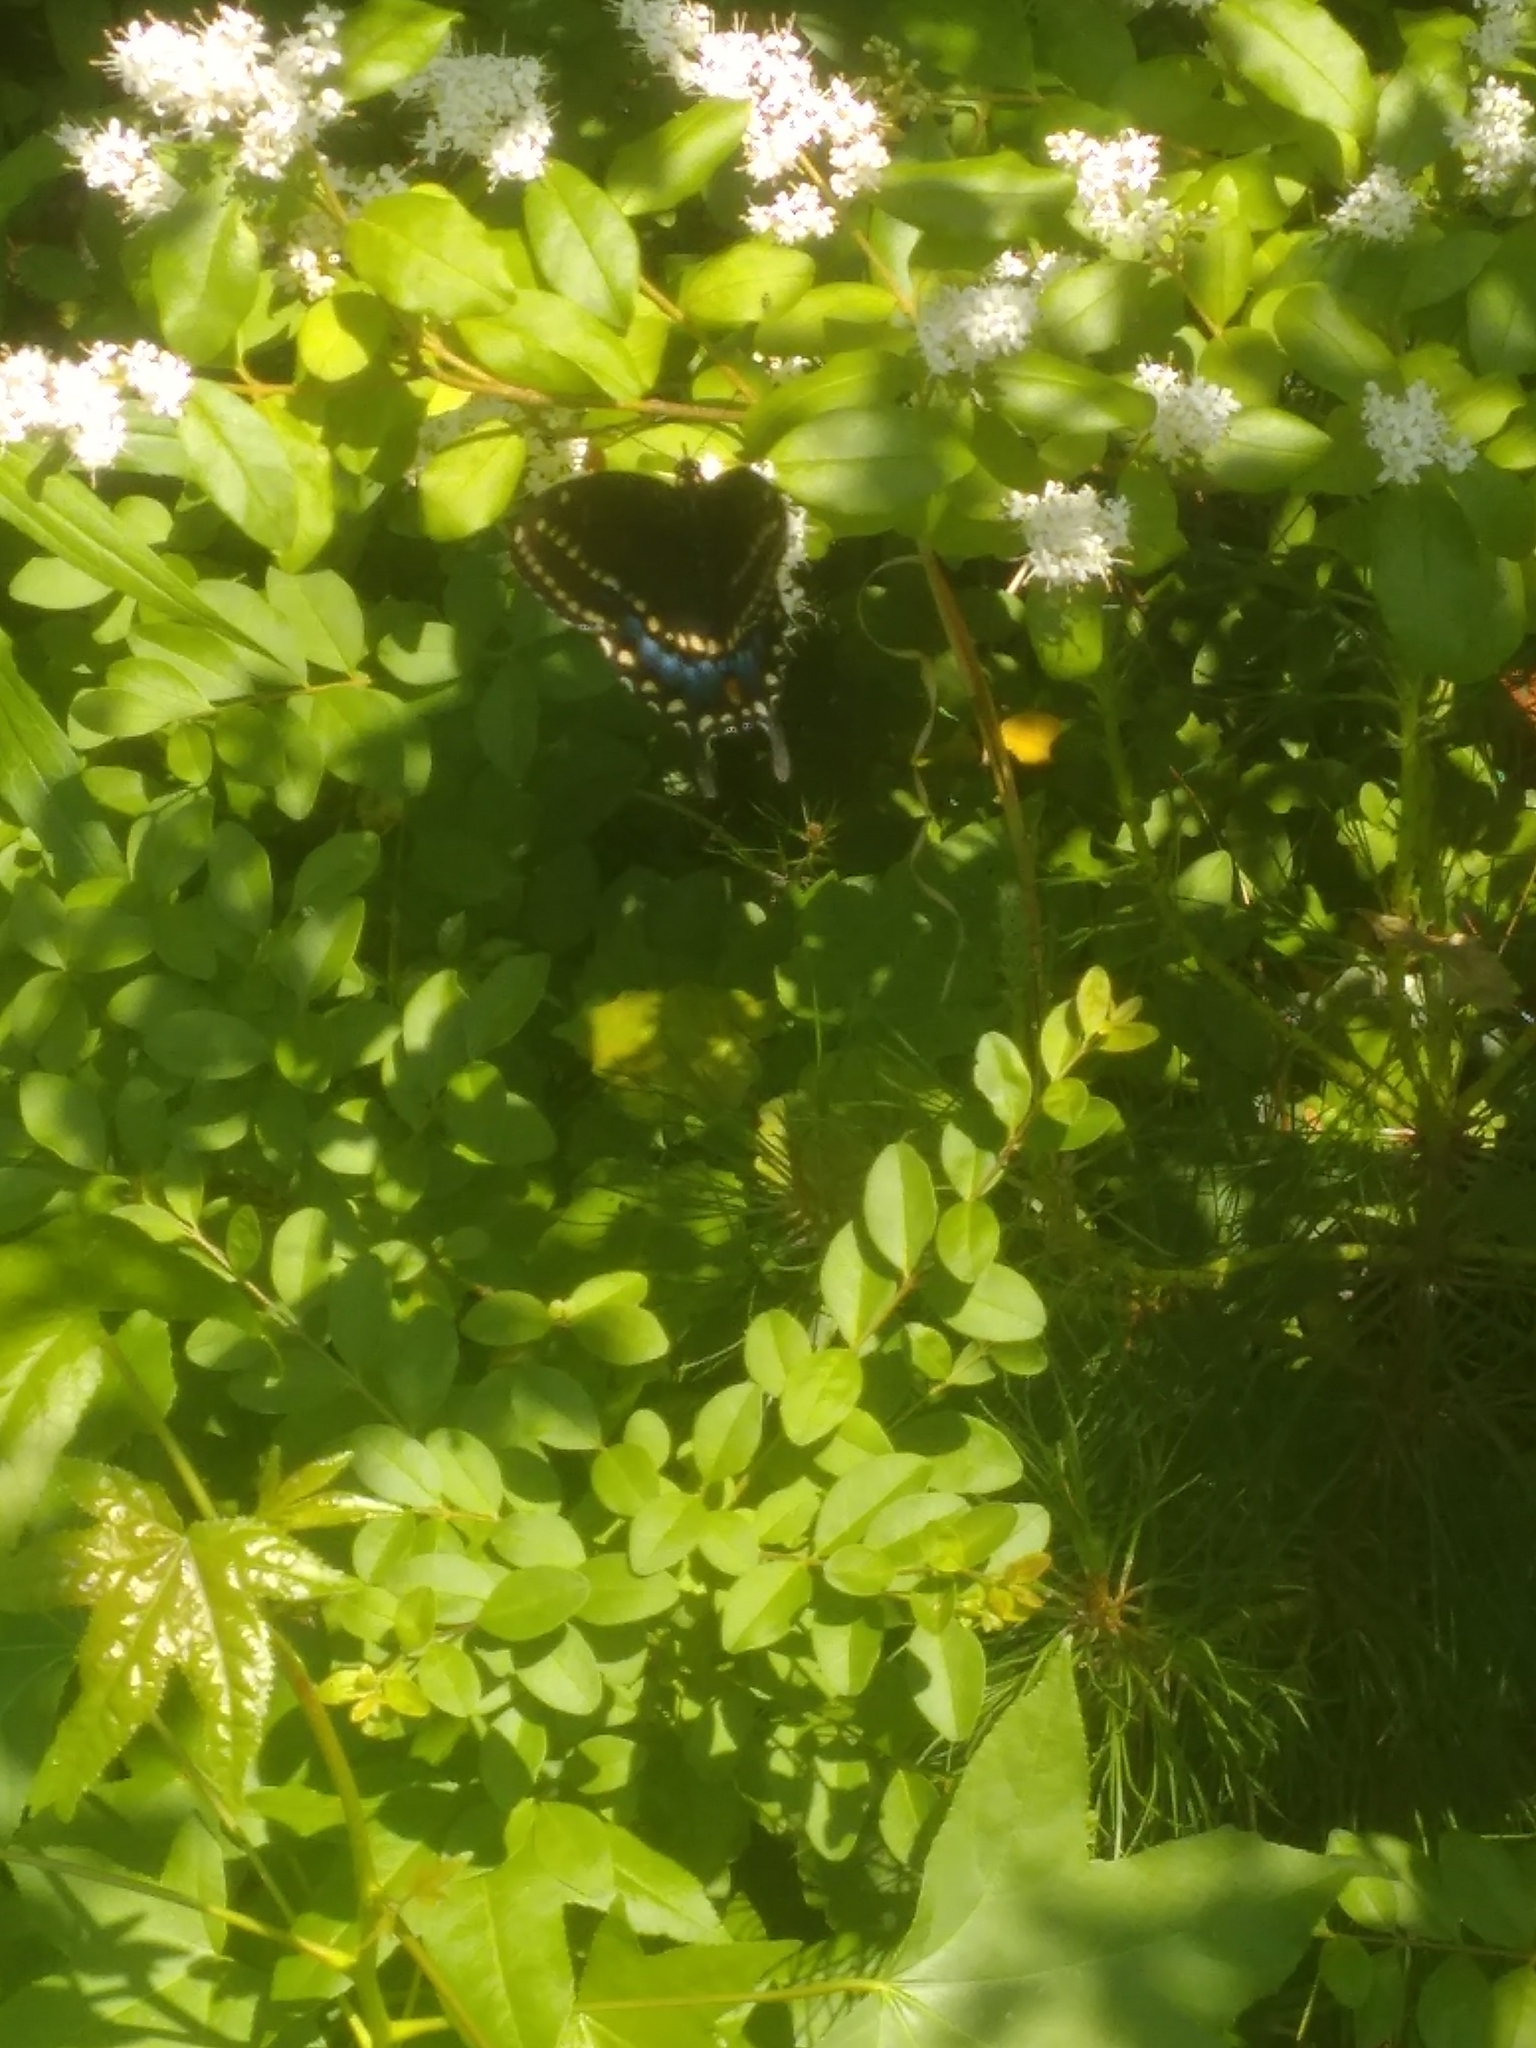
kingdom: Animalia
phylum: Arthropoda
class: Insecta
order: Lepidoptera
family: Papilionidae
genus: Papilio
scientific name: Papilio polyxenes
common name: Black swallowtail
